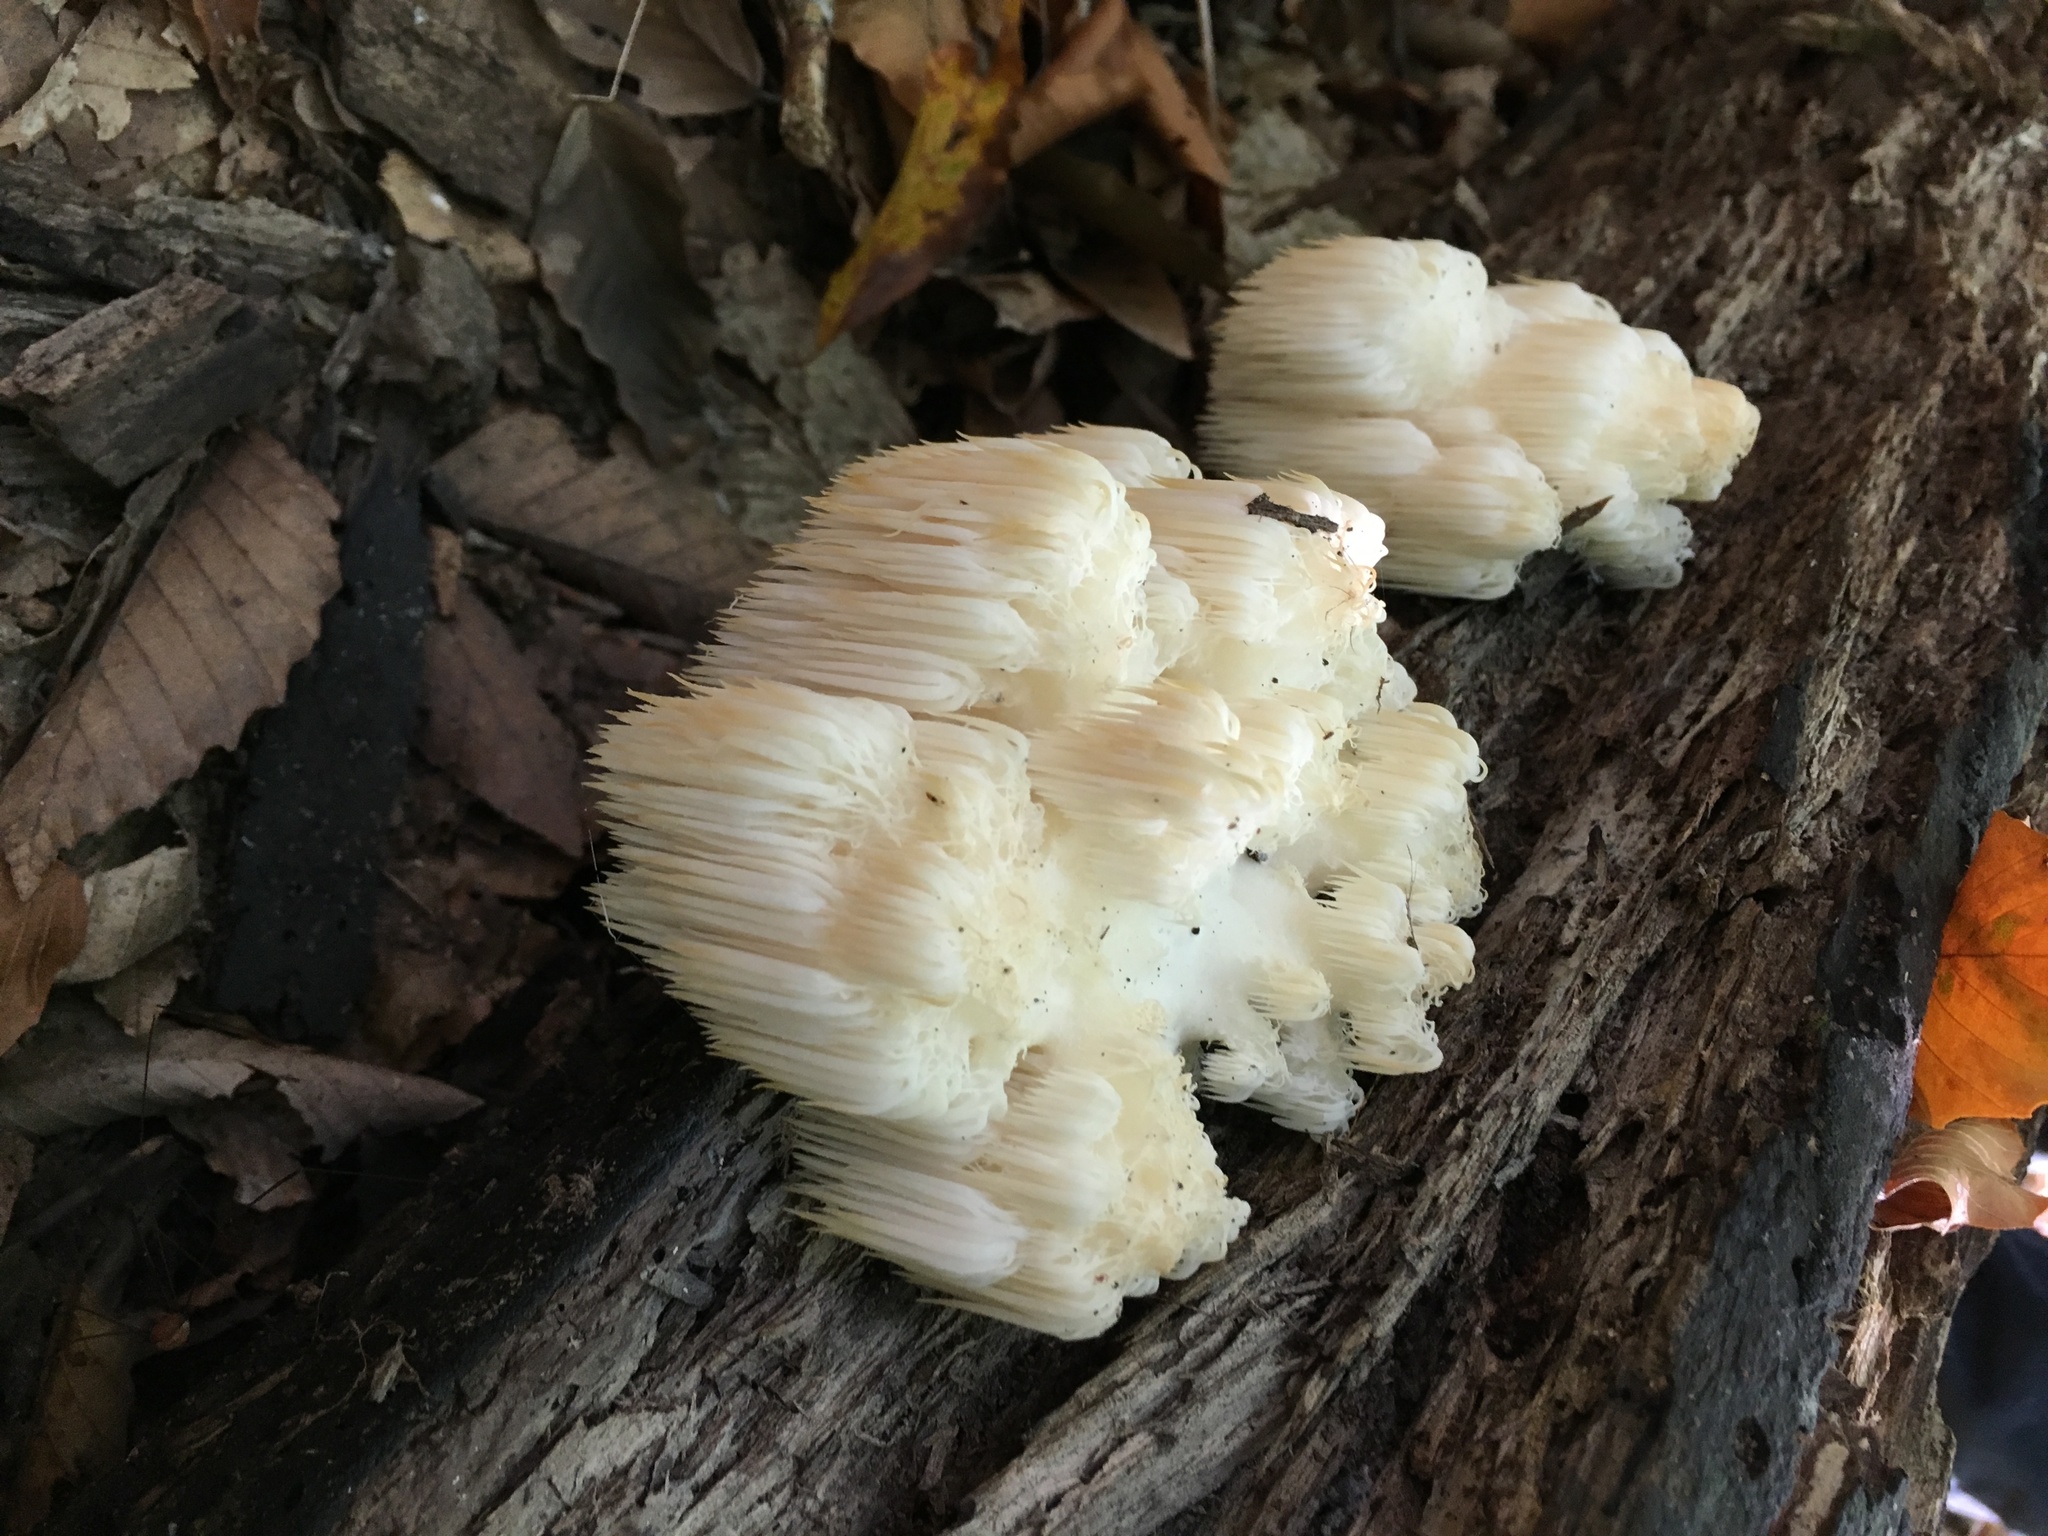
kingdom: Fungi
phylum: Basidiomycota
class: Agaricomycetes
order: Russulales
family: Hericiaceae
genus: Hericium
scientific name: Hericium americanum
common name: Bear's head tooth
